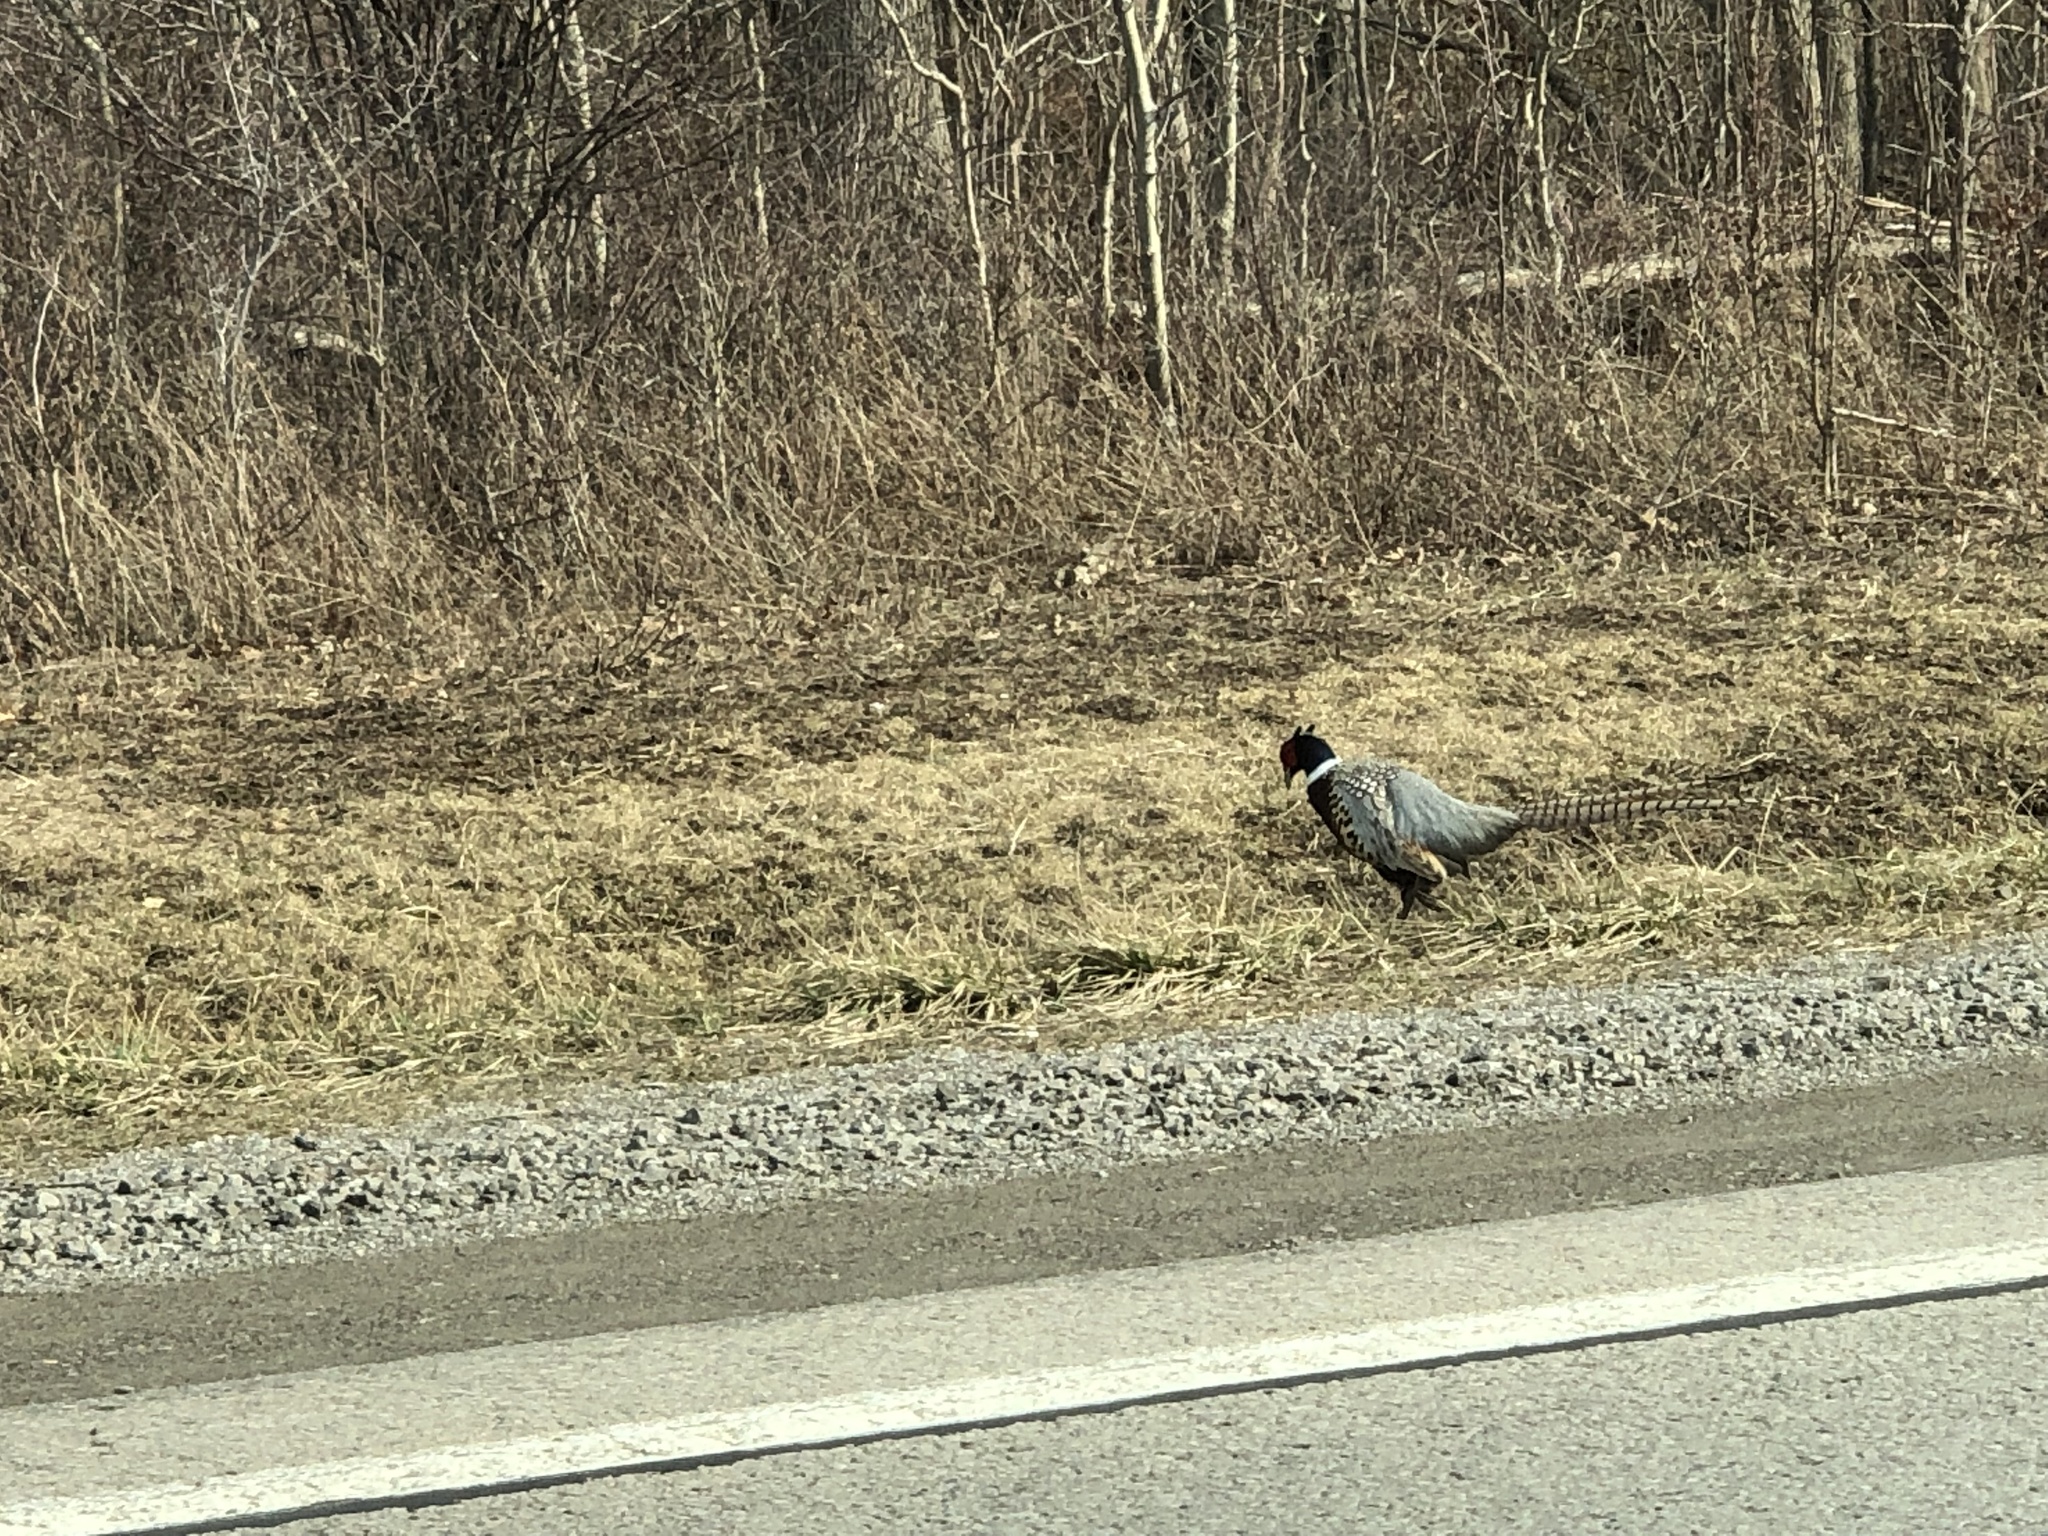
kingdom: Animalia
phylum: Chordata
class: Aves
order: Galliformes
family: Phasianidae
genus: Phasianus
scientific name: Phasianus colchicus
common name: Common pheasant
